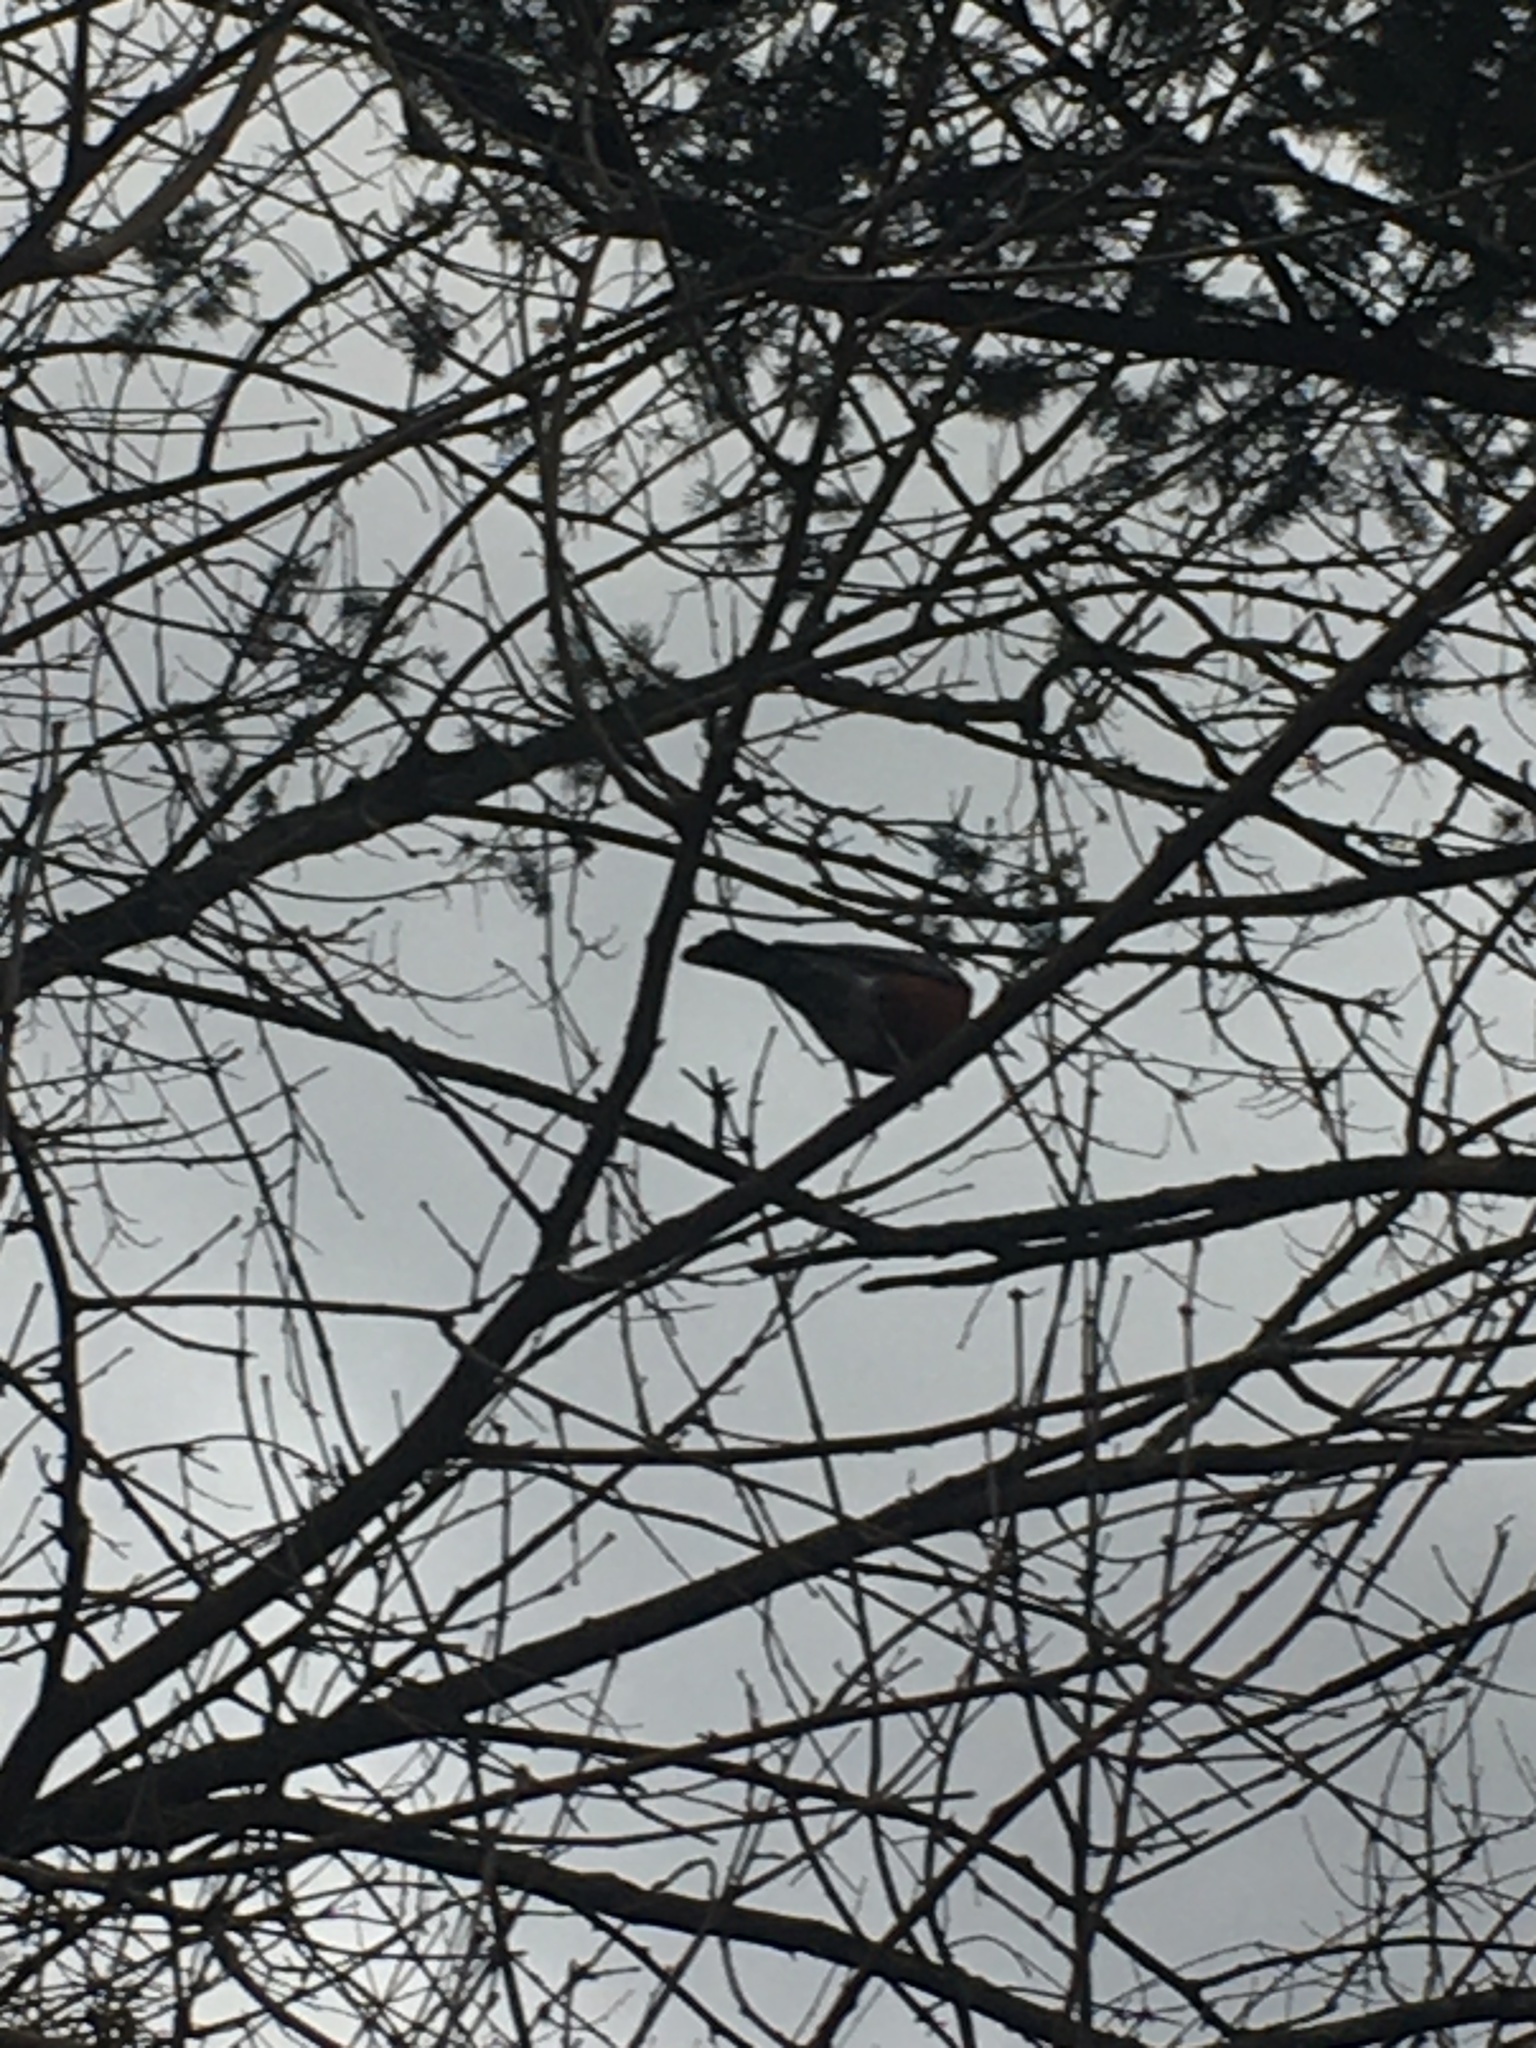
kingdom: Animalia
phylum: Chordata
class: Aves
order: Passeriformes
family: Turdidae
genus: Turdus
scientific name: Turdus migratorius
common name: American robin
